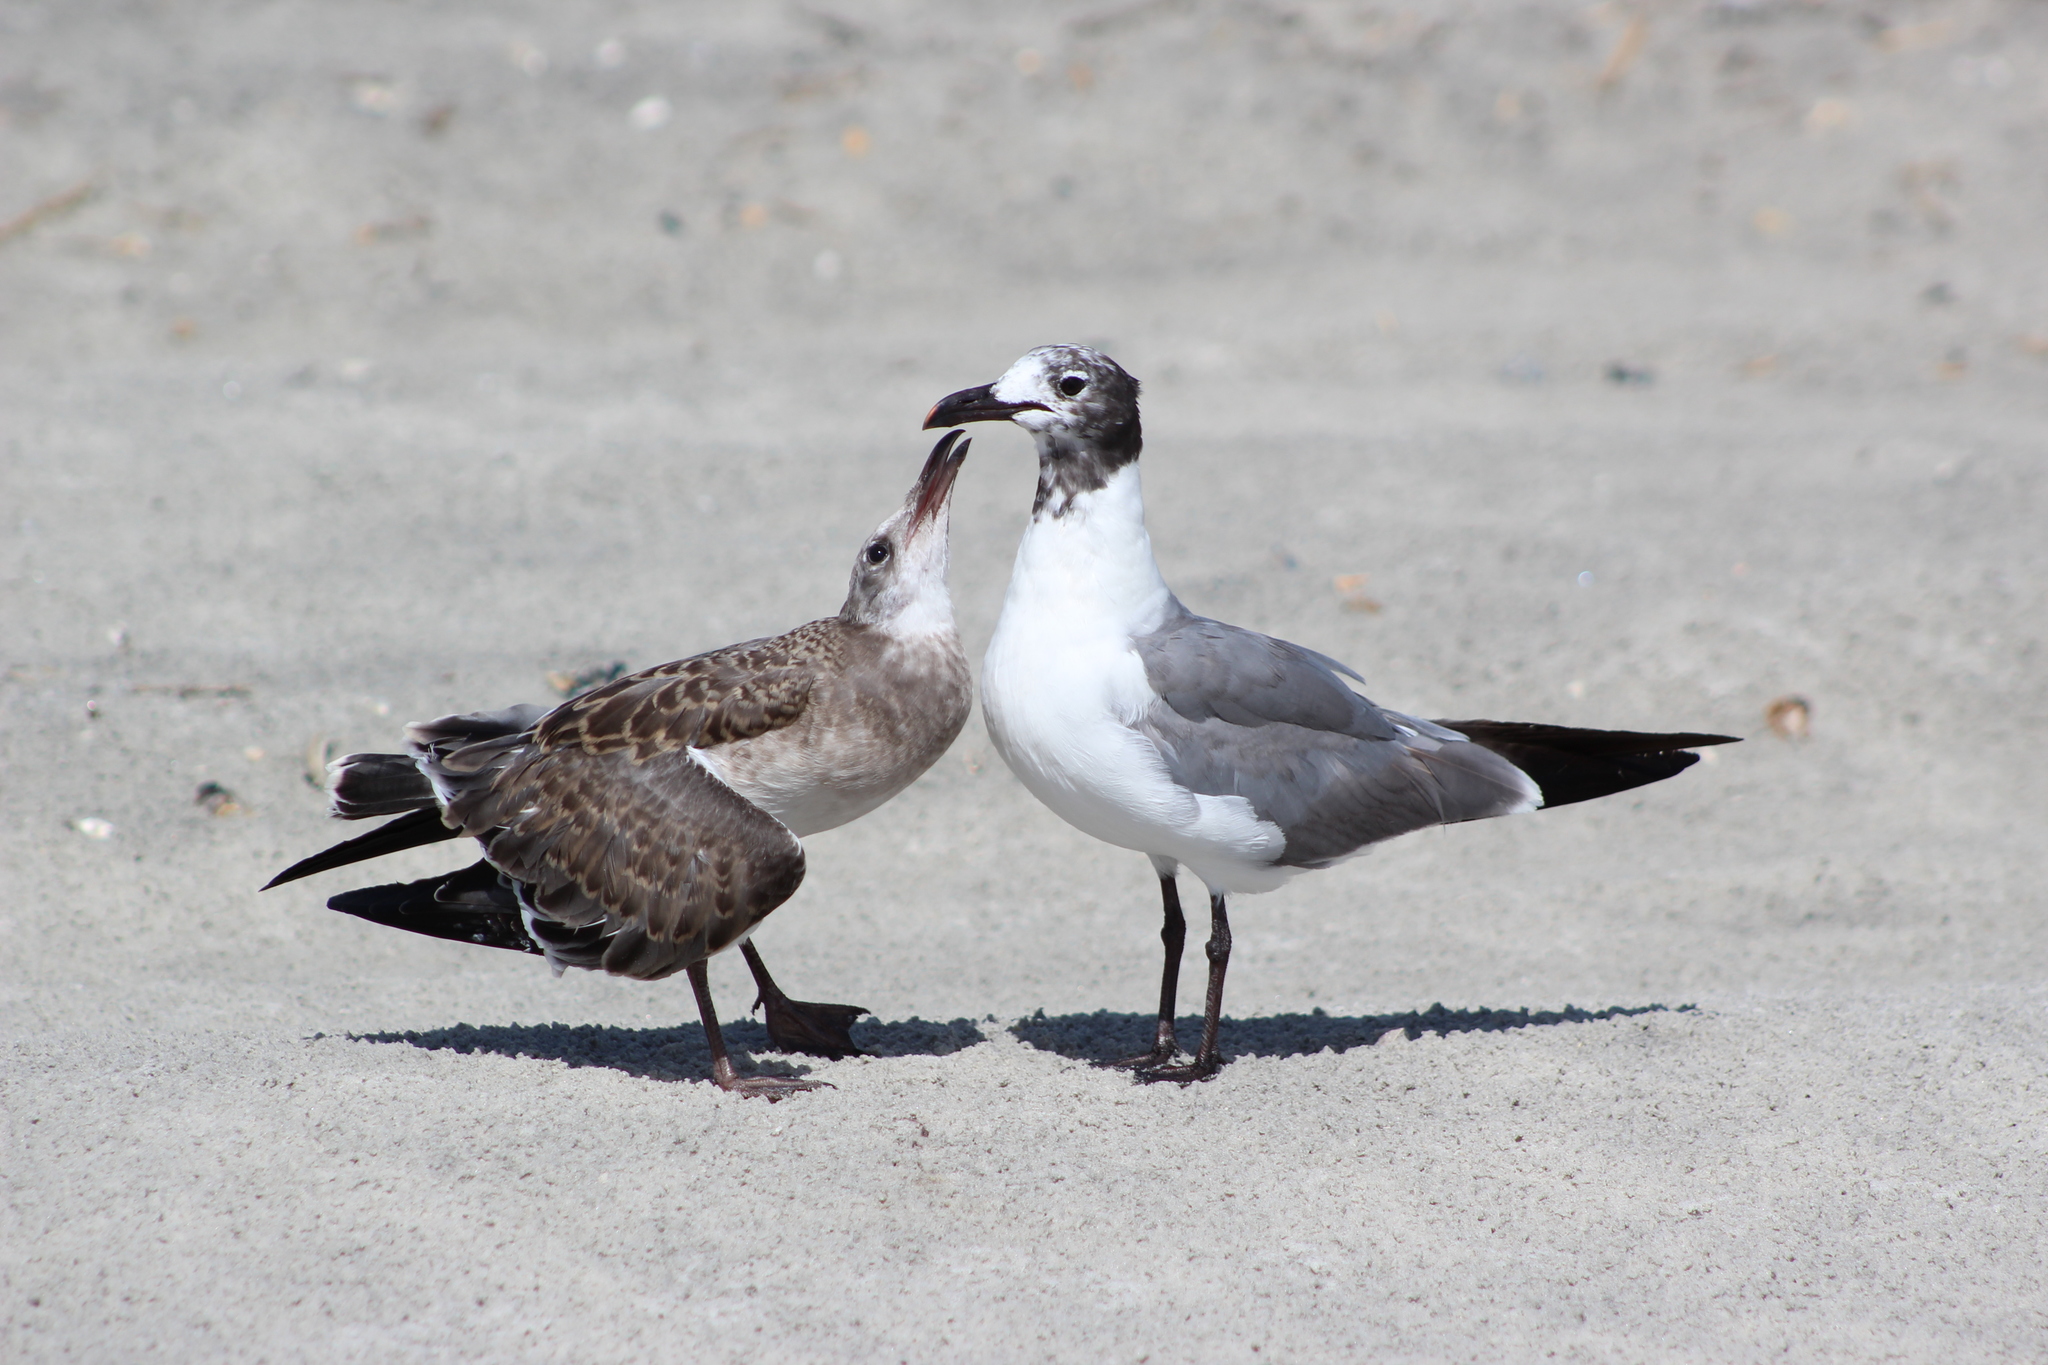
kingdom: Animalia
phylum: Chordata
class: Aves
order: Charadriiformes
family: Laridae
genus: Leucophaeus
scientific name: Leucophaeus atricilla
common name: Laughing gull
